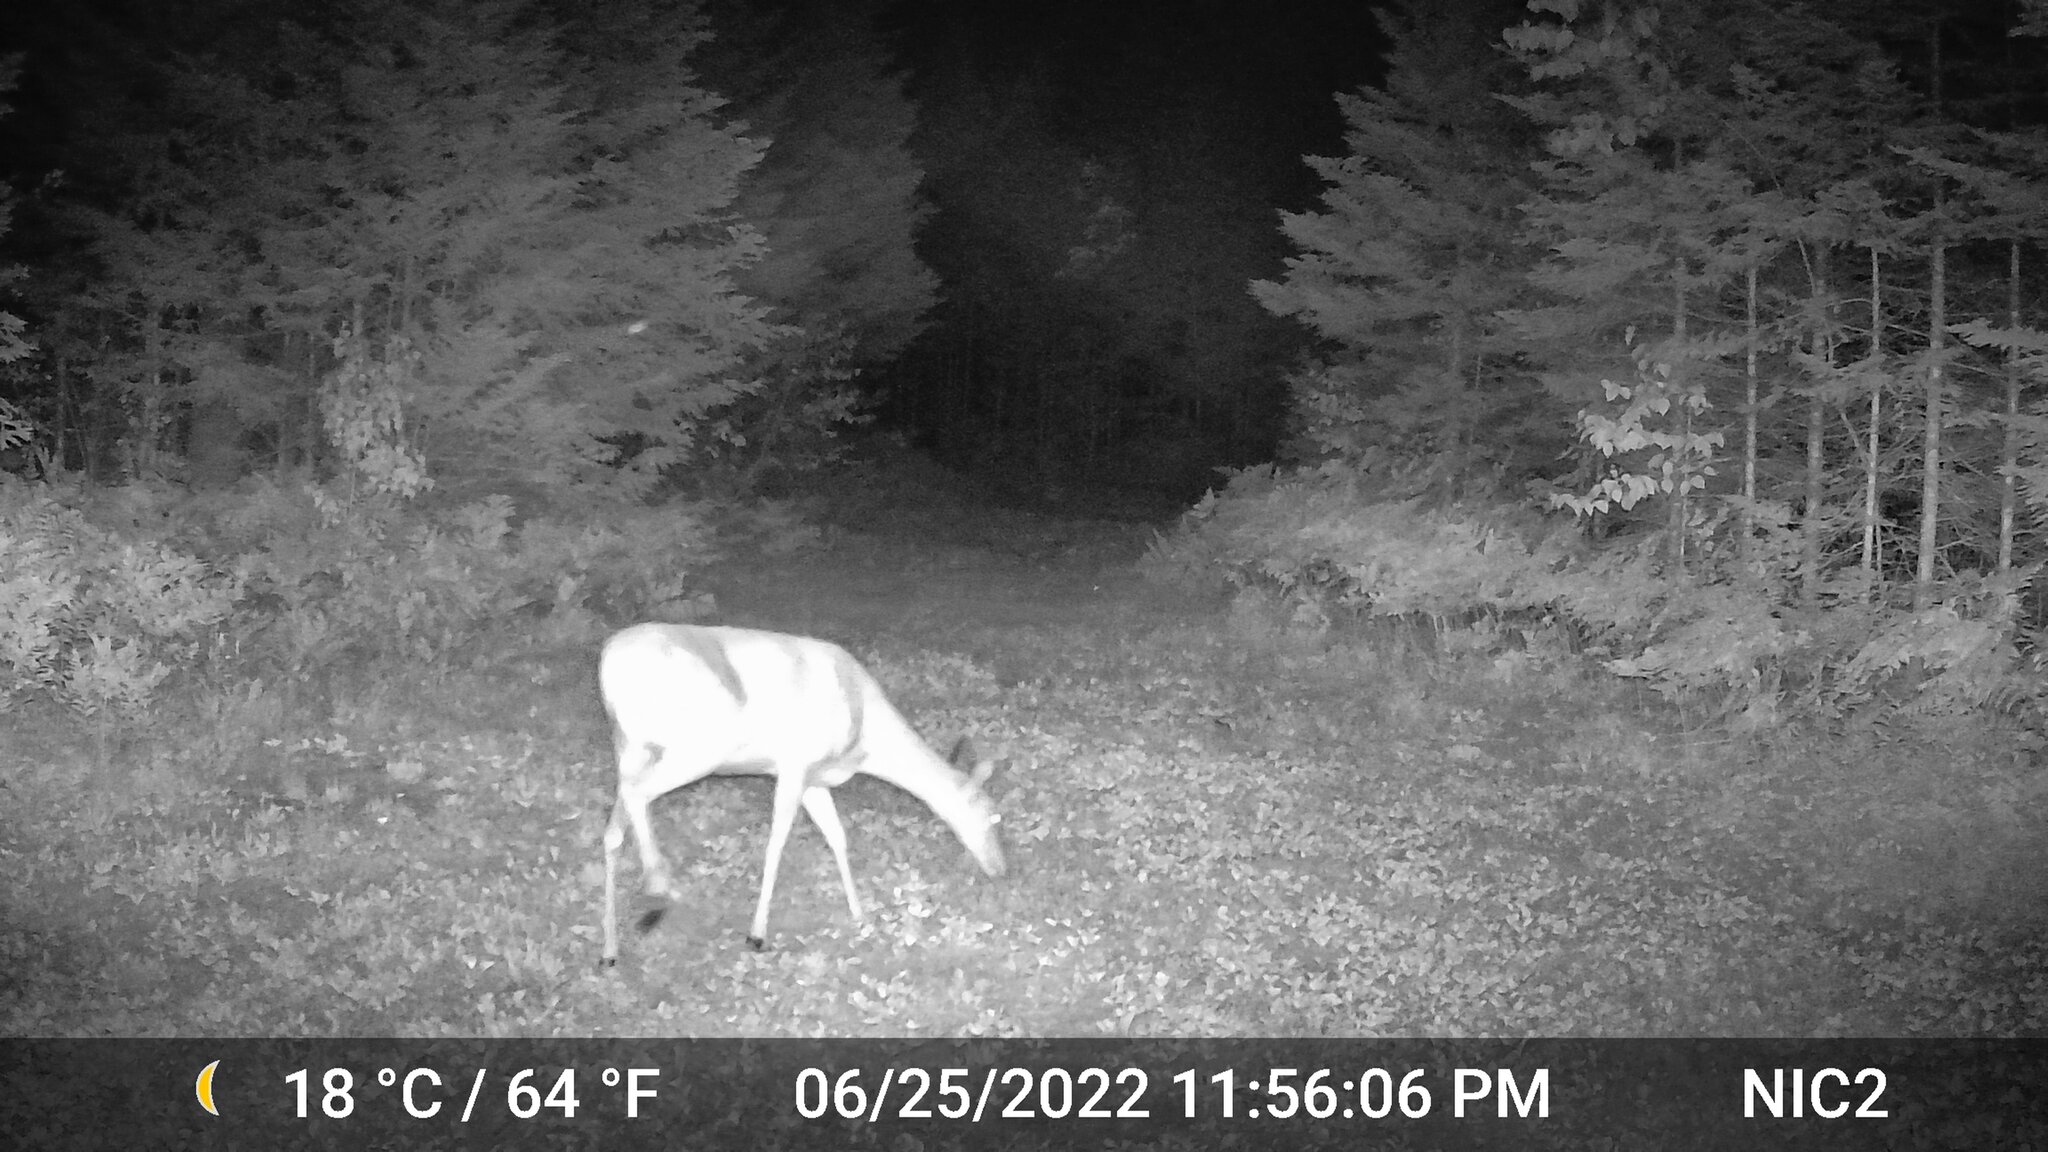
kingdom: Animalia
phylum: Chordata
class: Mammalia
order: Artiodactyla
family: Cervidae
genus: Odocoileus
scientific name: Odocoileus virginianus
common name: White-tailed deer
